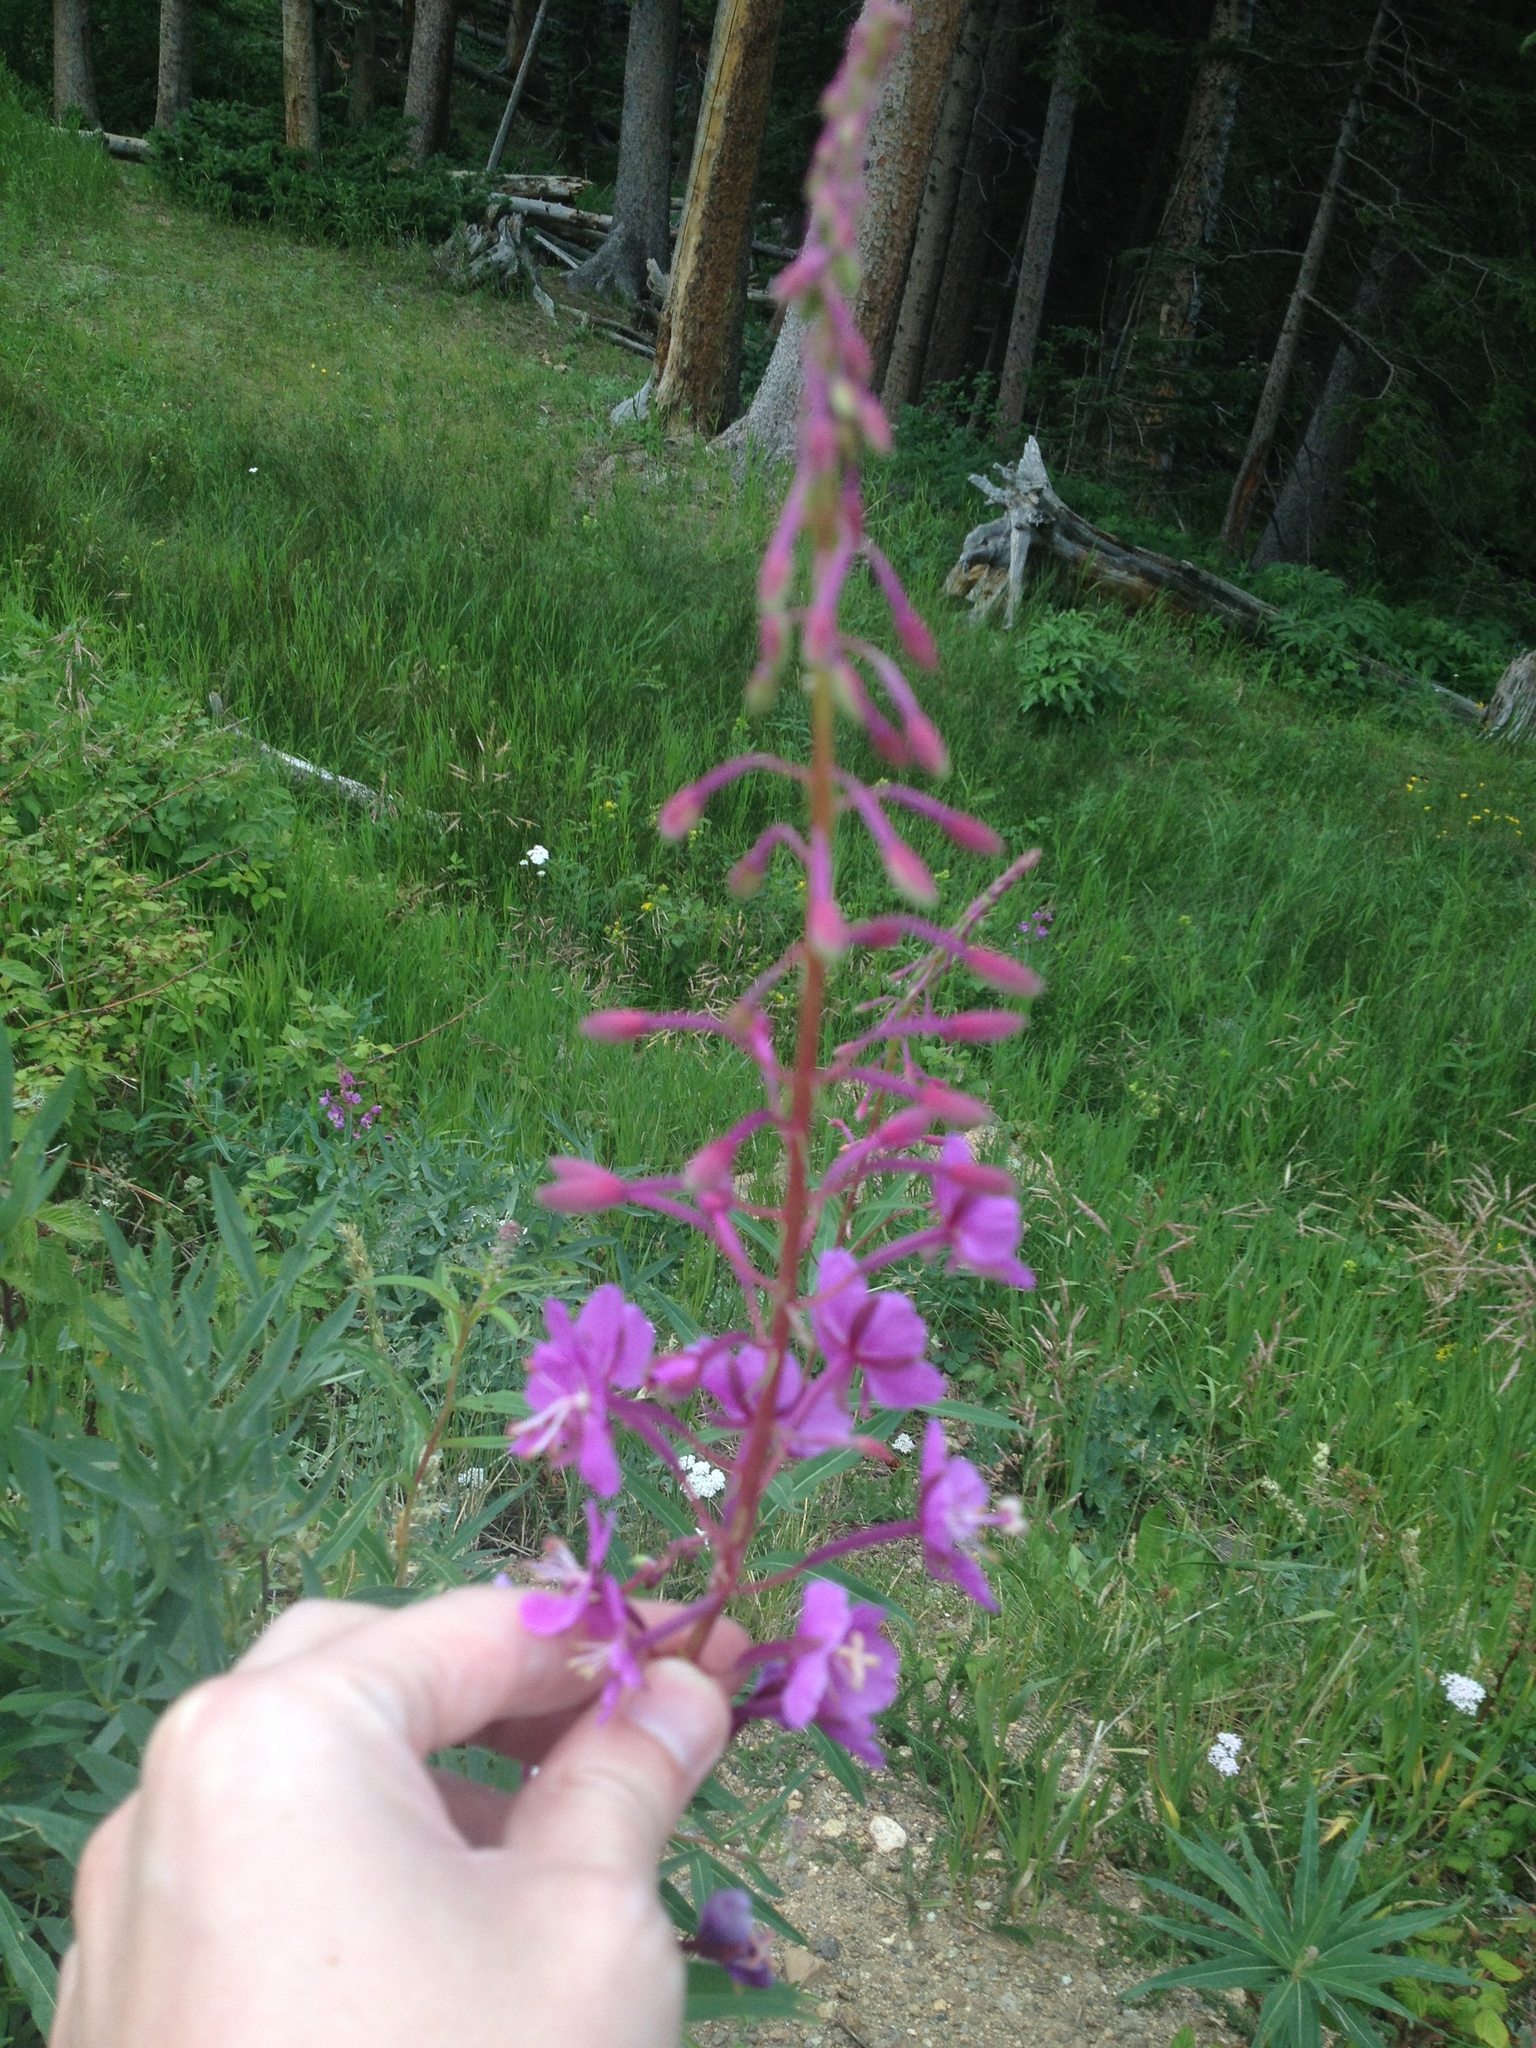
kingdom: Plantae
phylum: Tracheophyta
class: Magnoliopsida
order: Myrtales
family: Onagraceae
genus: Chamaenerion
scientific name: Chamaenerion angustifolium
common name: Fireweed
